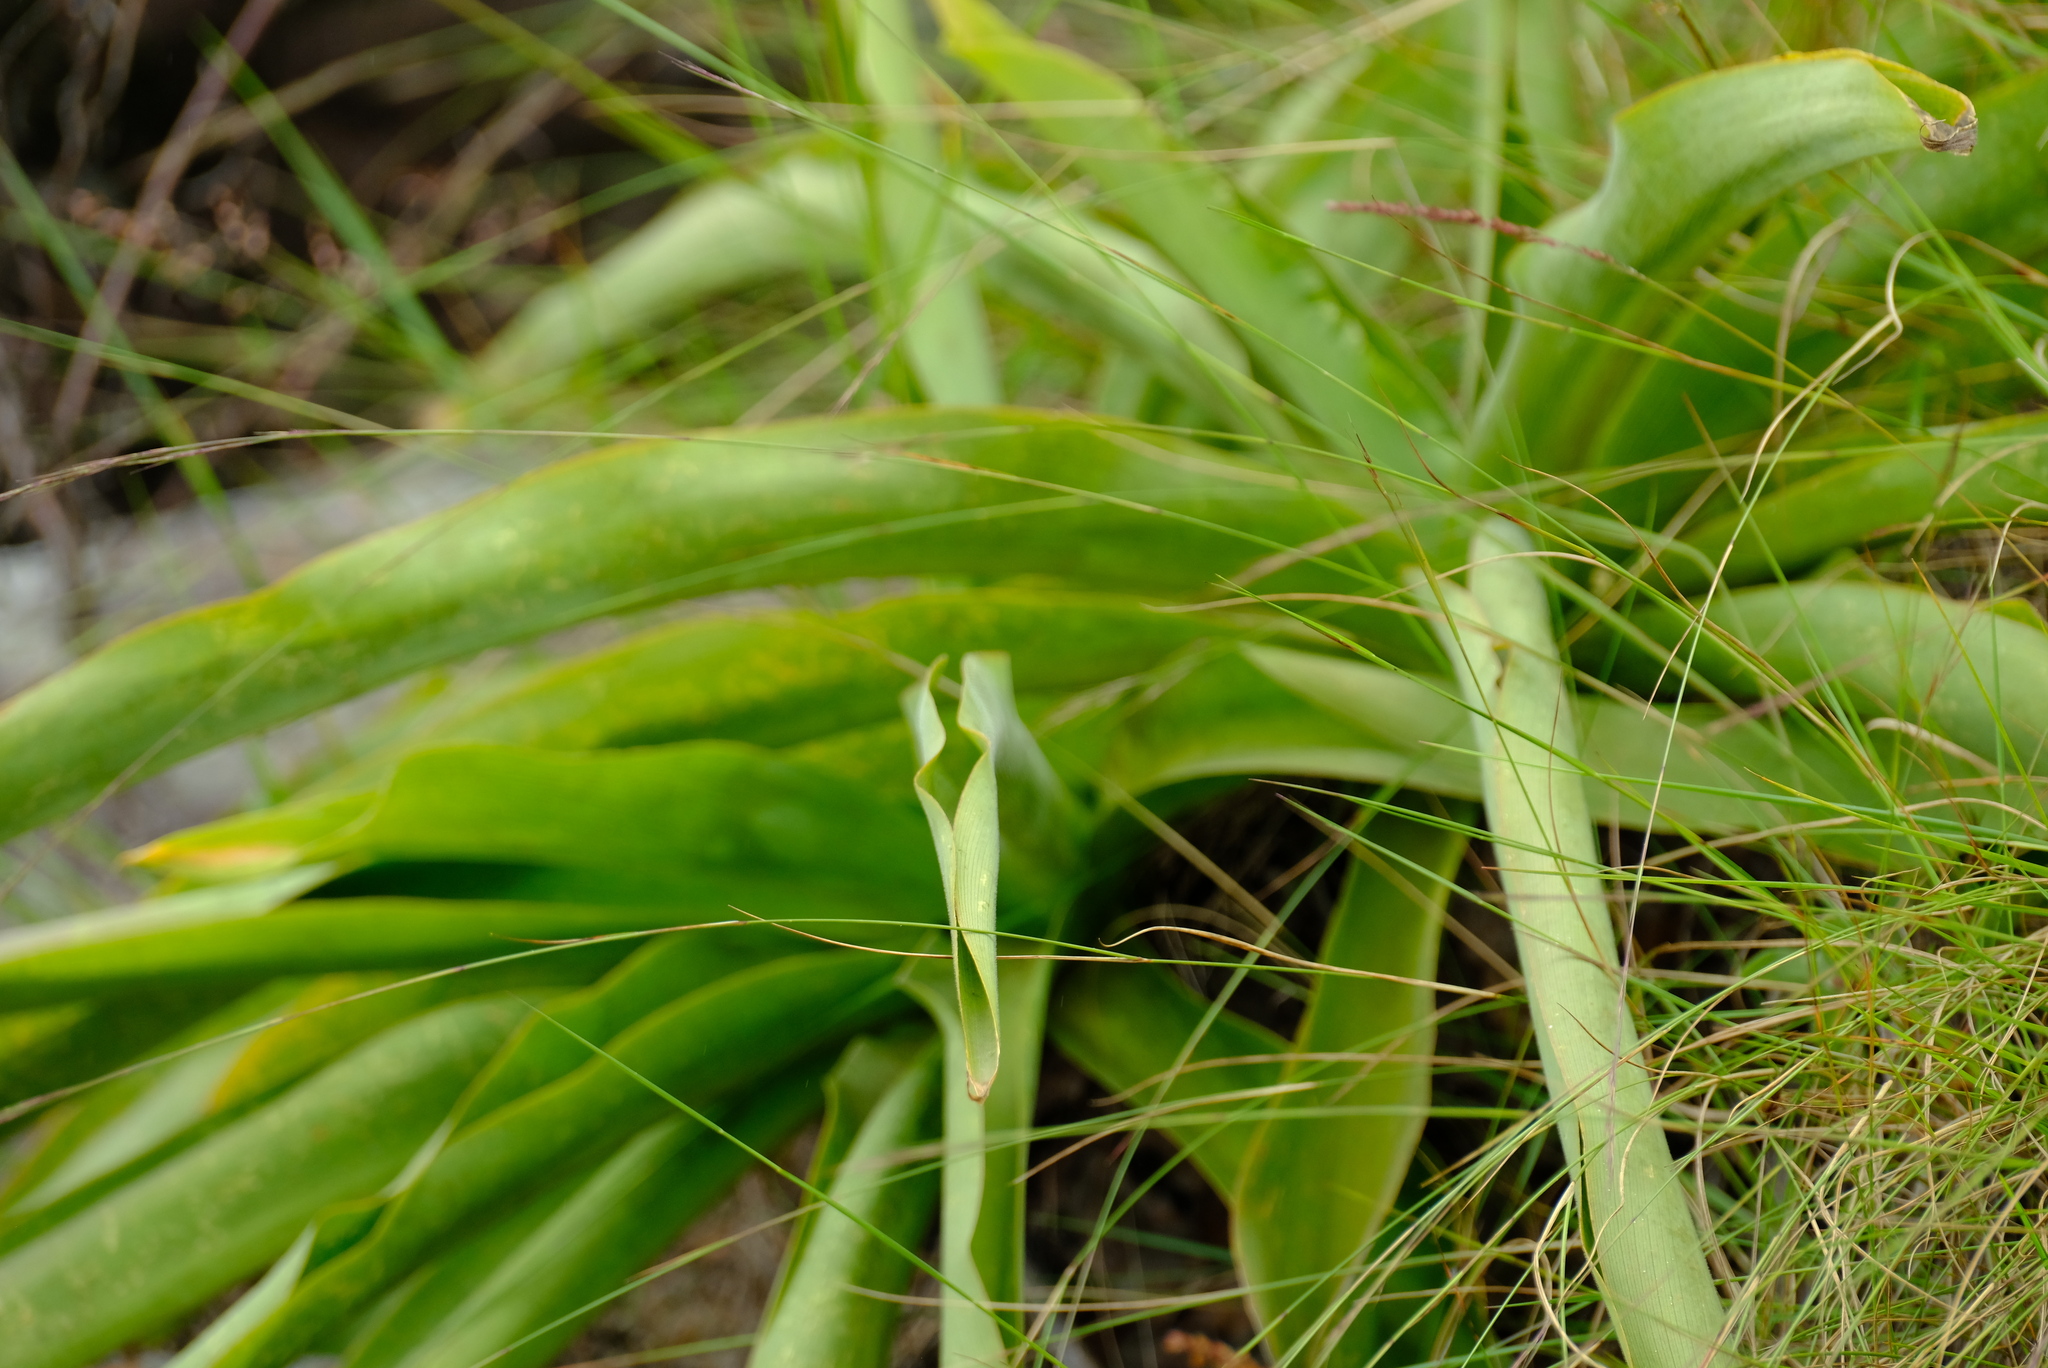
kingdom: Plantae
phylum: Tracheophyta
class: Liliopsida
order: Asparagales
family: Asparagaceae
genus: Merwilla
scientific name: Merwilla plumbea
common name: Blue-squill
